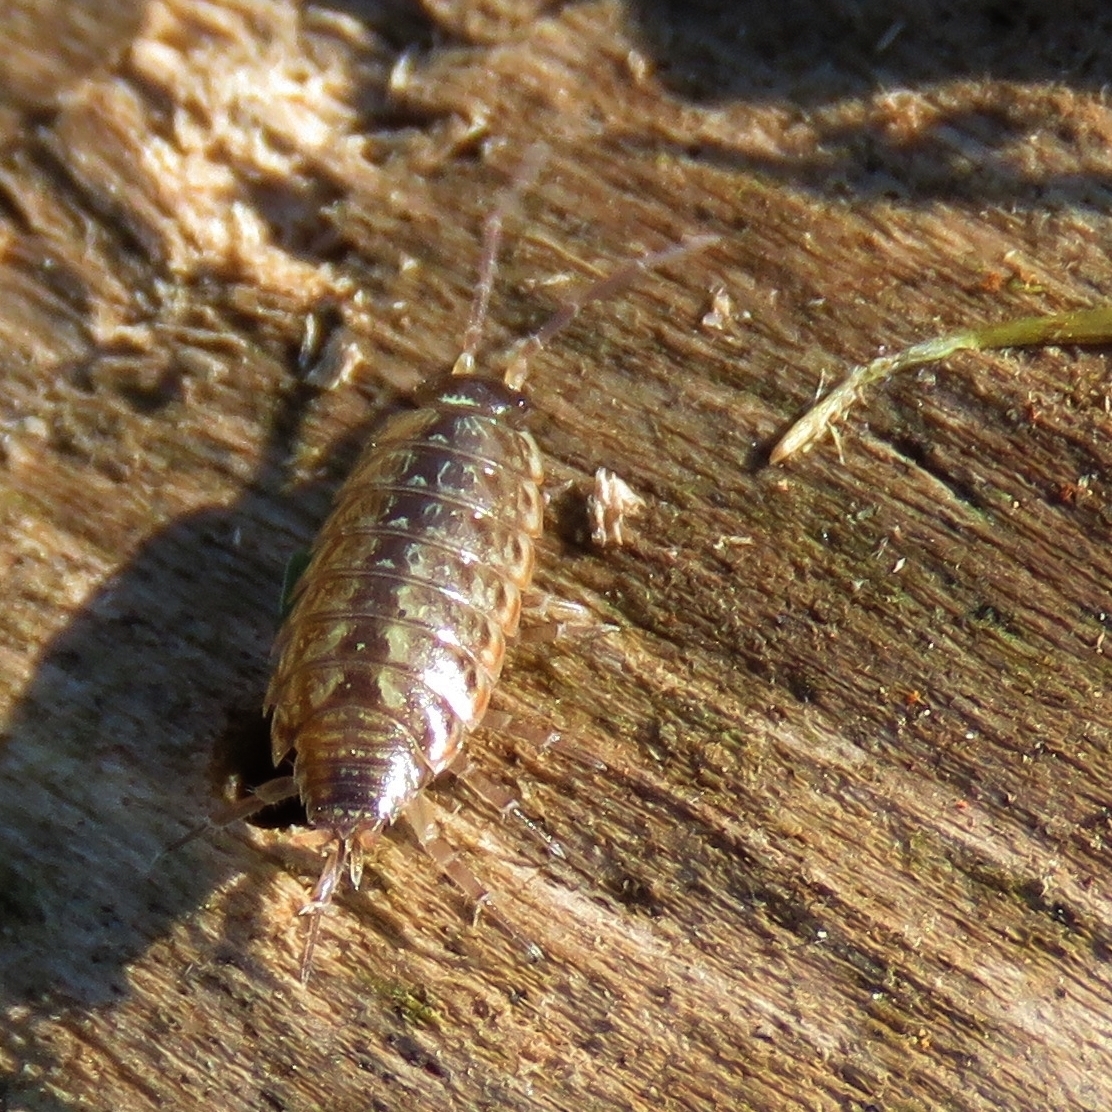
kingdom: Animalia
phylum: Arthropoda
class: Malacostraca
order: Isopoda
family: Philosciidae
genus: Philoscia
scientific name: Philoscia muscorum
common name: Common striped woodlouse
